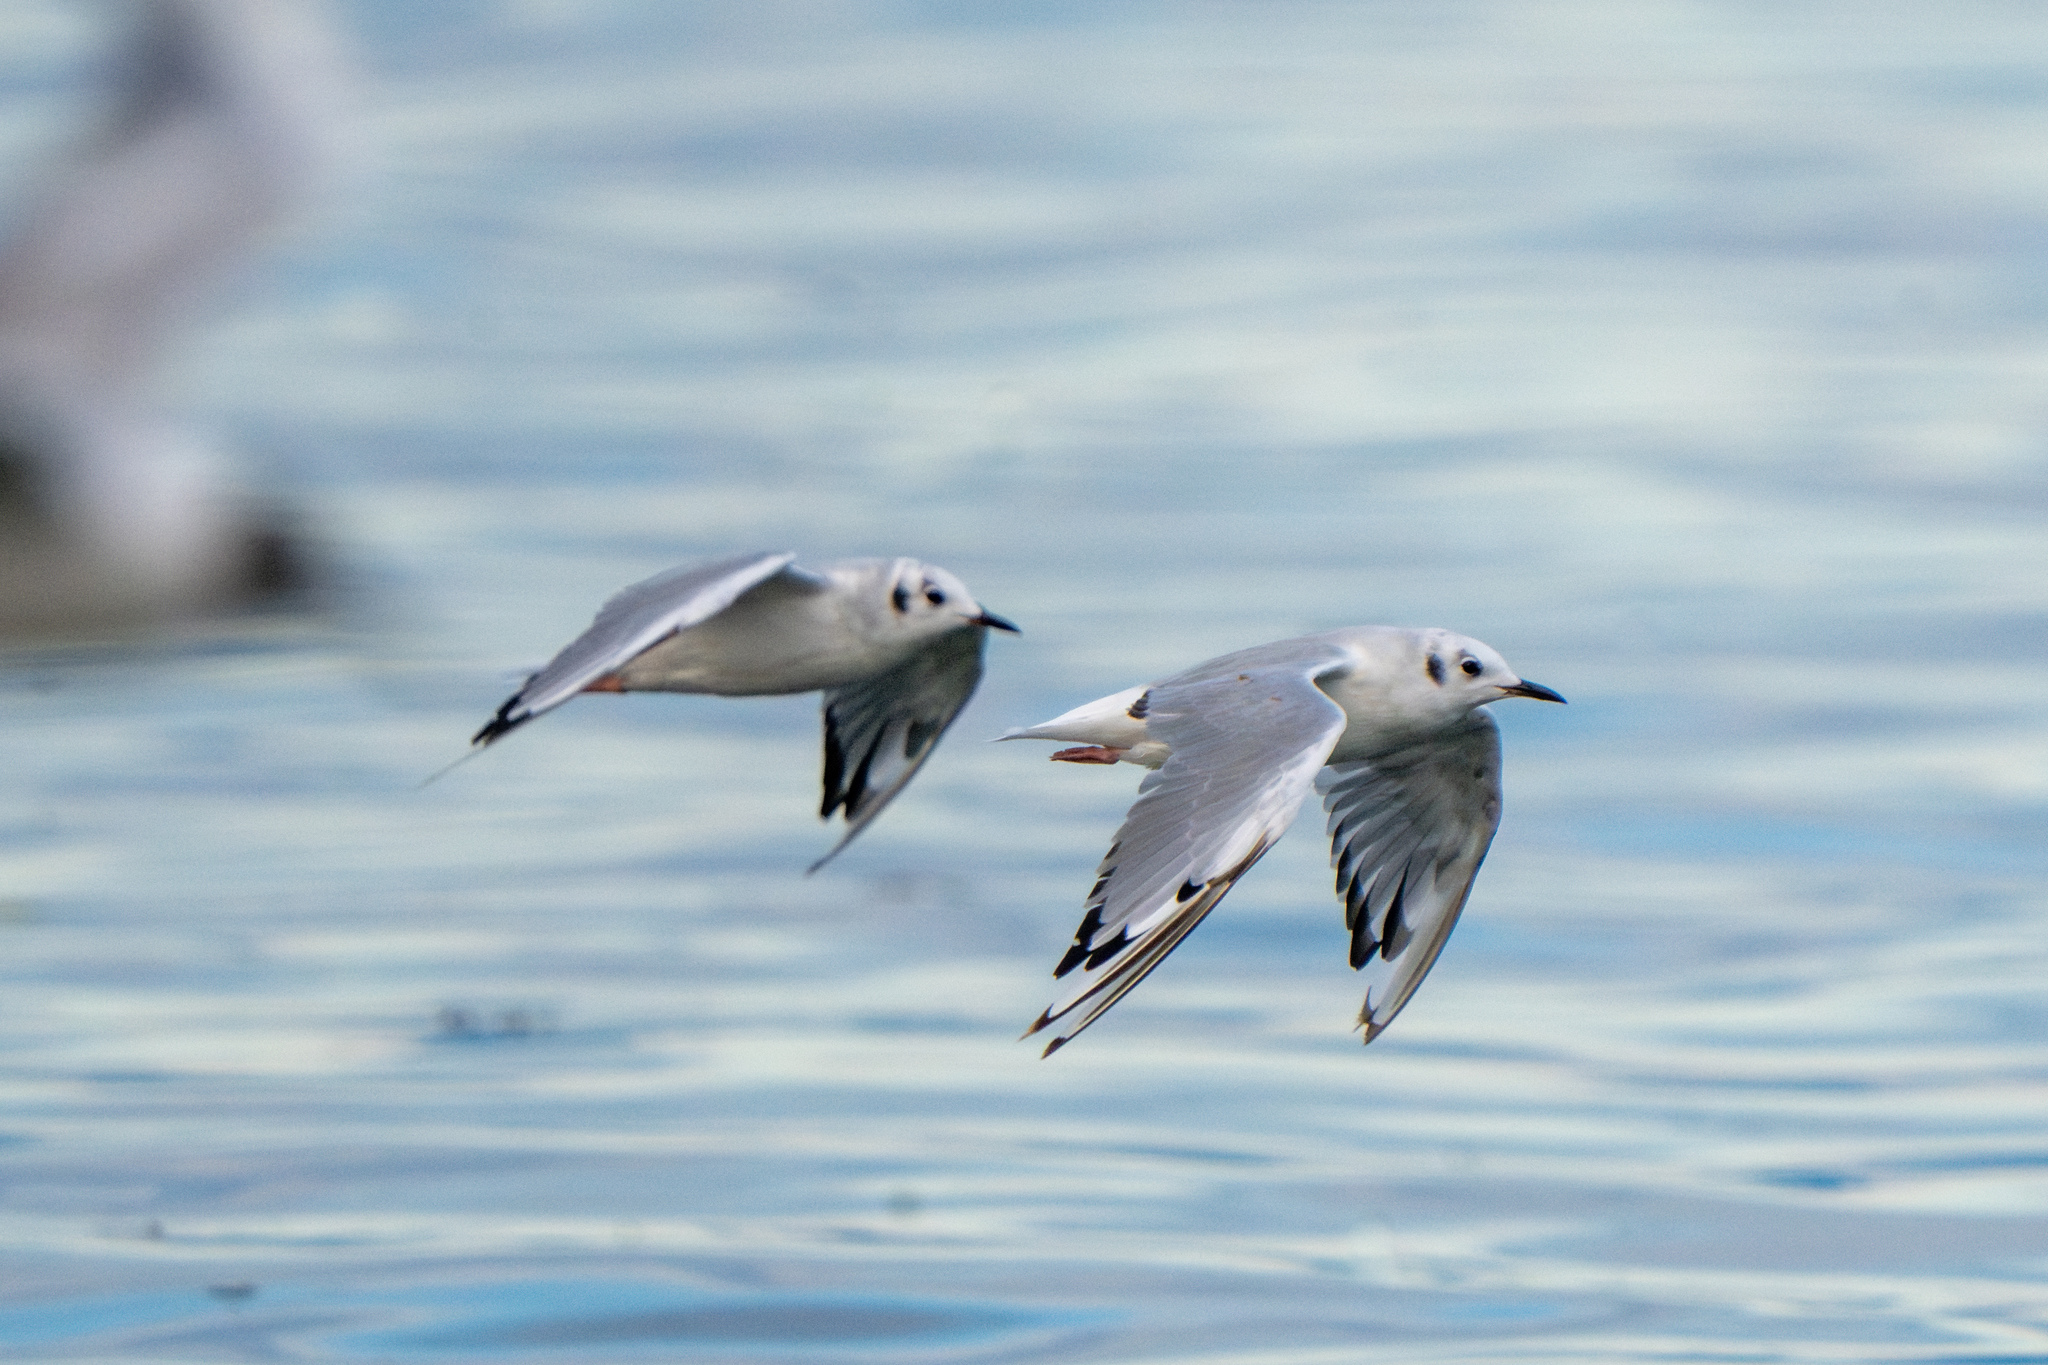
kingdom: Animalia
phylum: Chordata
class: Aves
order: Charadriiformes
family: Laridae
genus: Chroicocephalus
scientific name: Chroicocephalus philadelphia
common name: Bonaparte's gull
